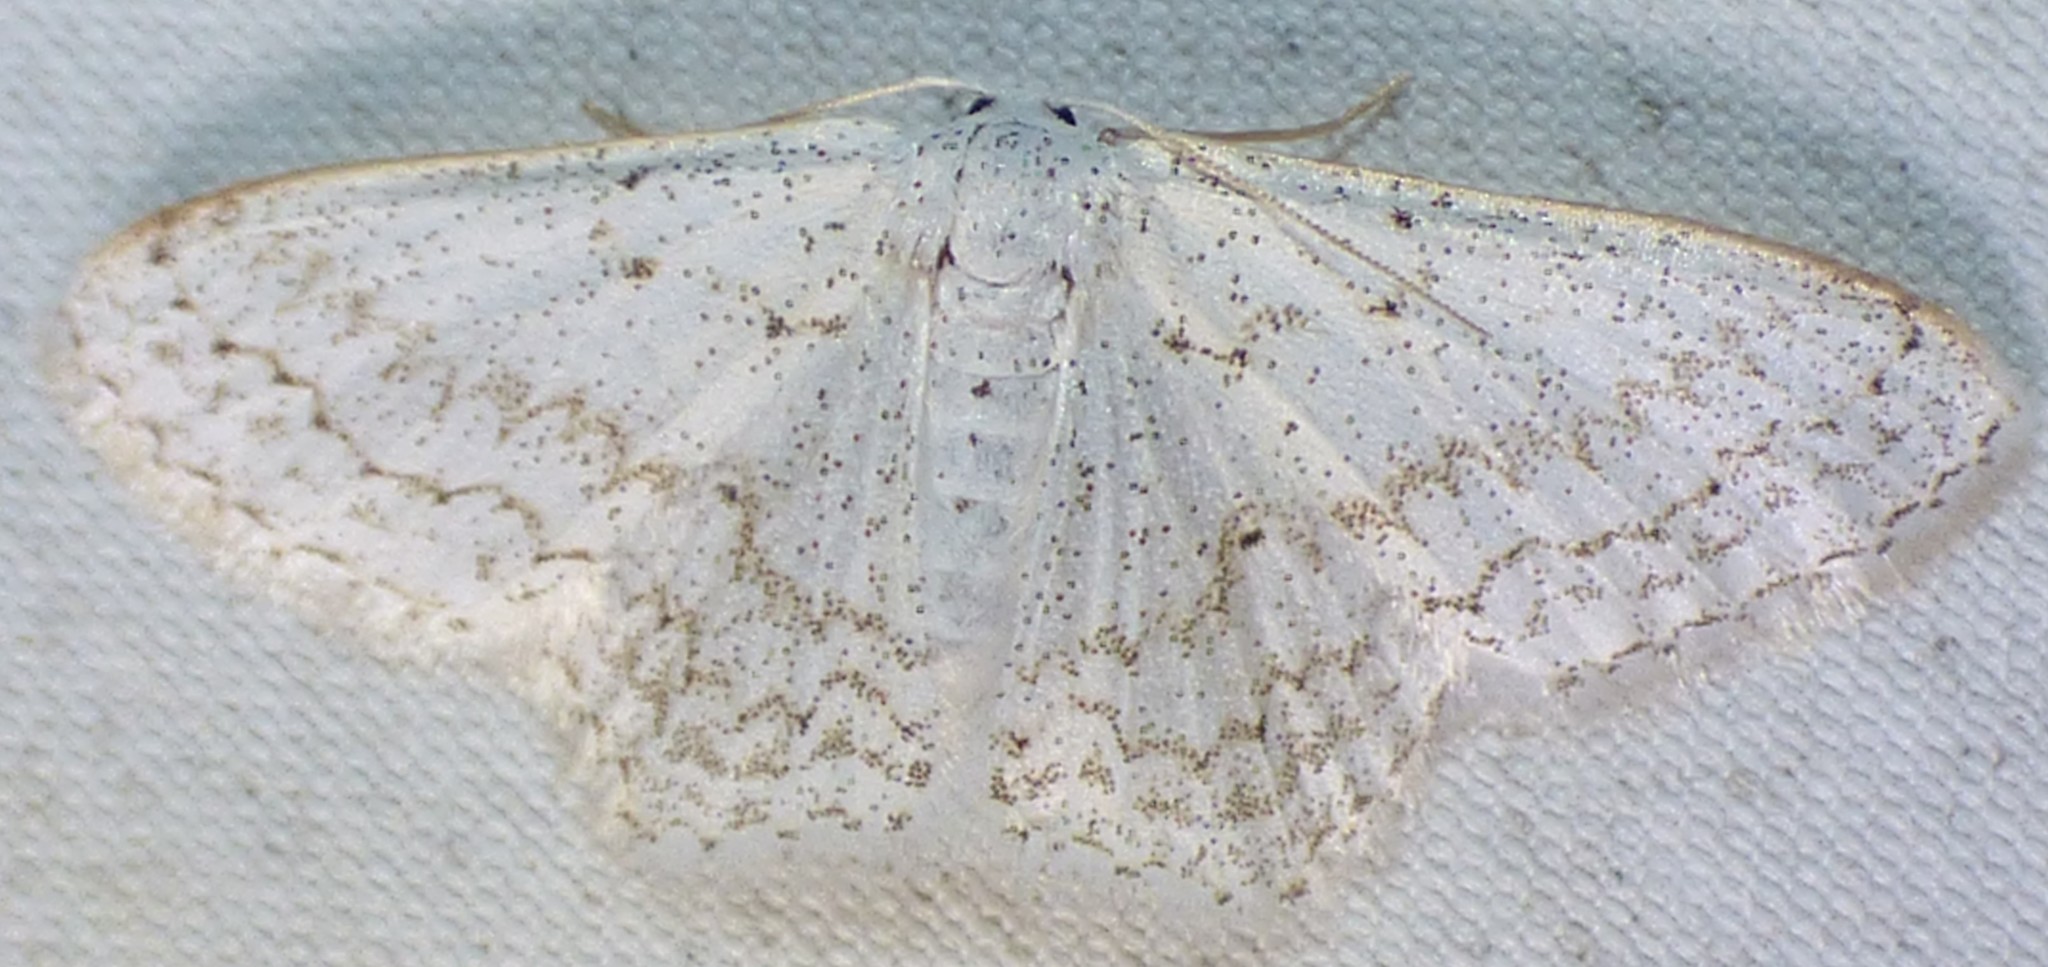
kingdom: Animalia
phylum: Arthropoda
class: Insecta
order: Lepidoptera
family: Geometridae
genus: Idaea
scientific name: Idaea tacturata
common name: Dot-lined wave
